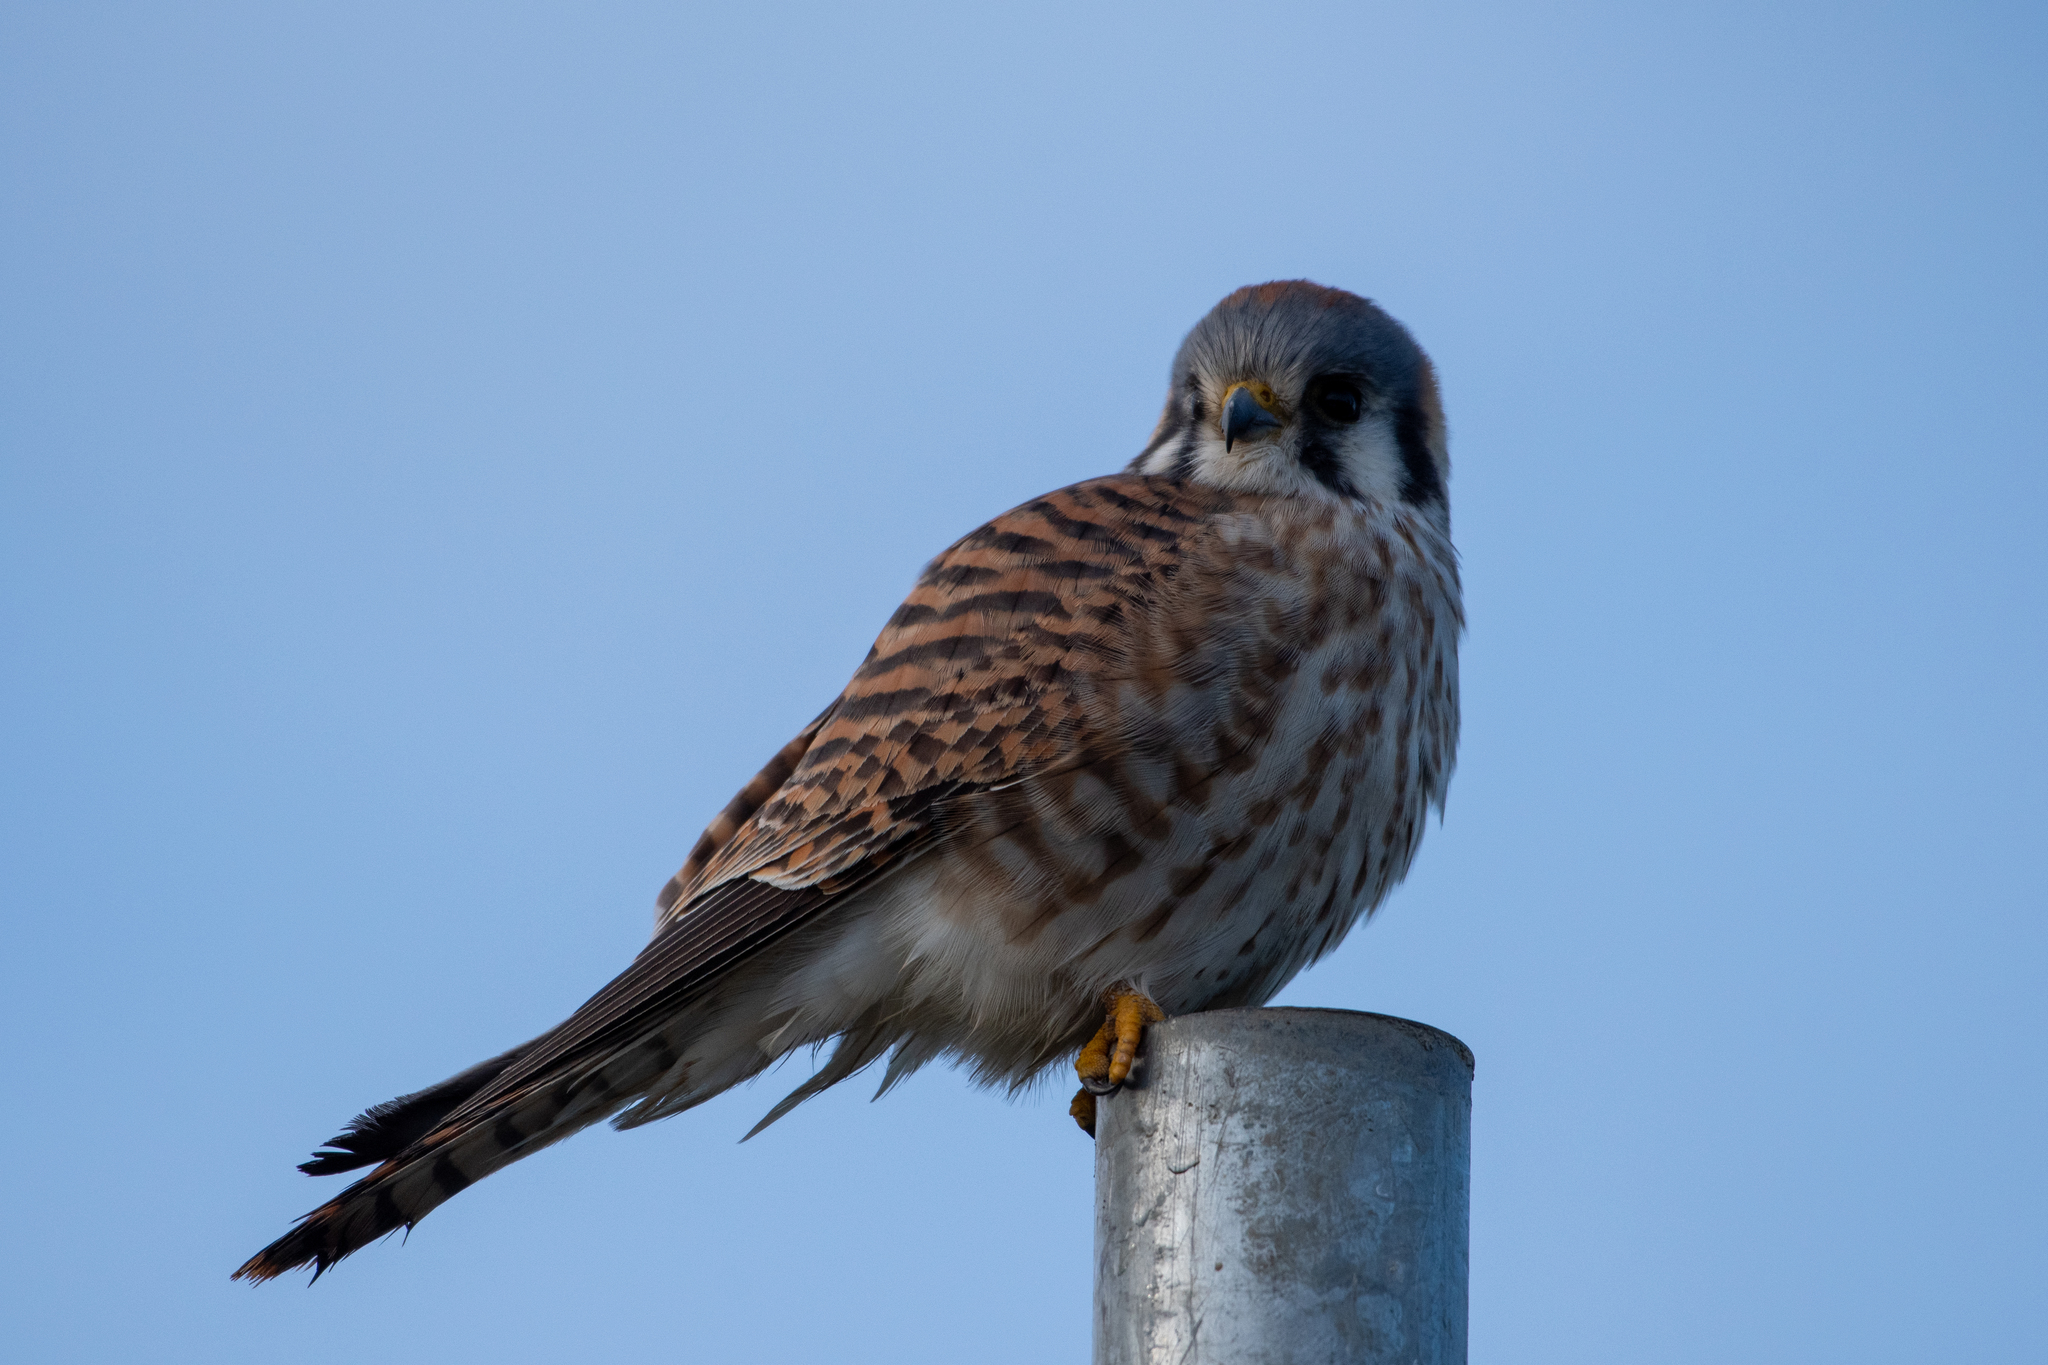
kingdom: Animalia
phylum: Chordata
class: Aves
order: Falconiformes
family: Falconidae
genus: Falco
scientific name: Falco sparverius
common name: American kestrel
